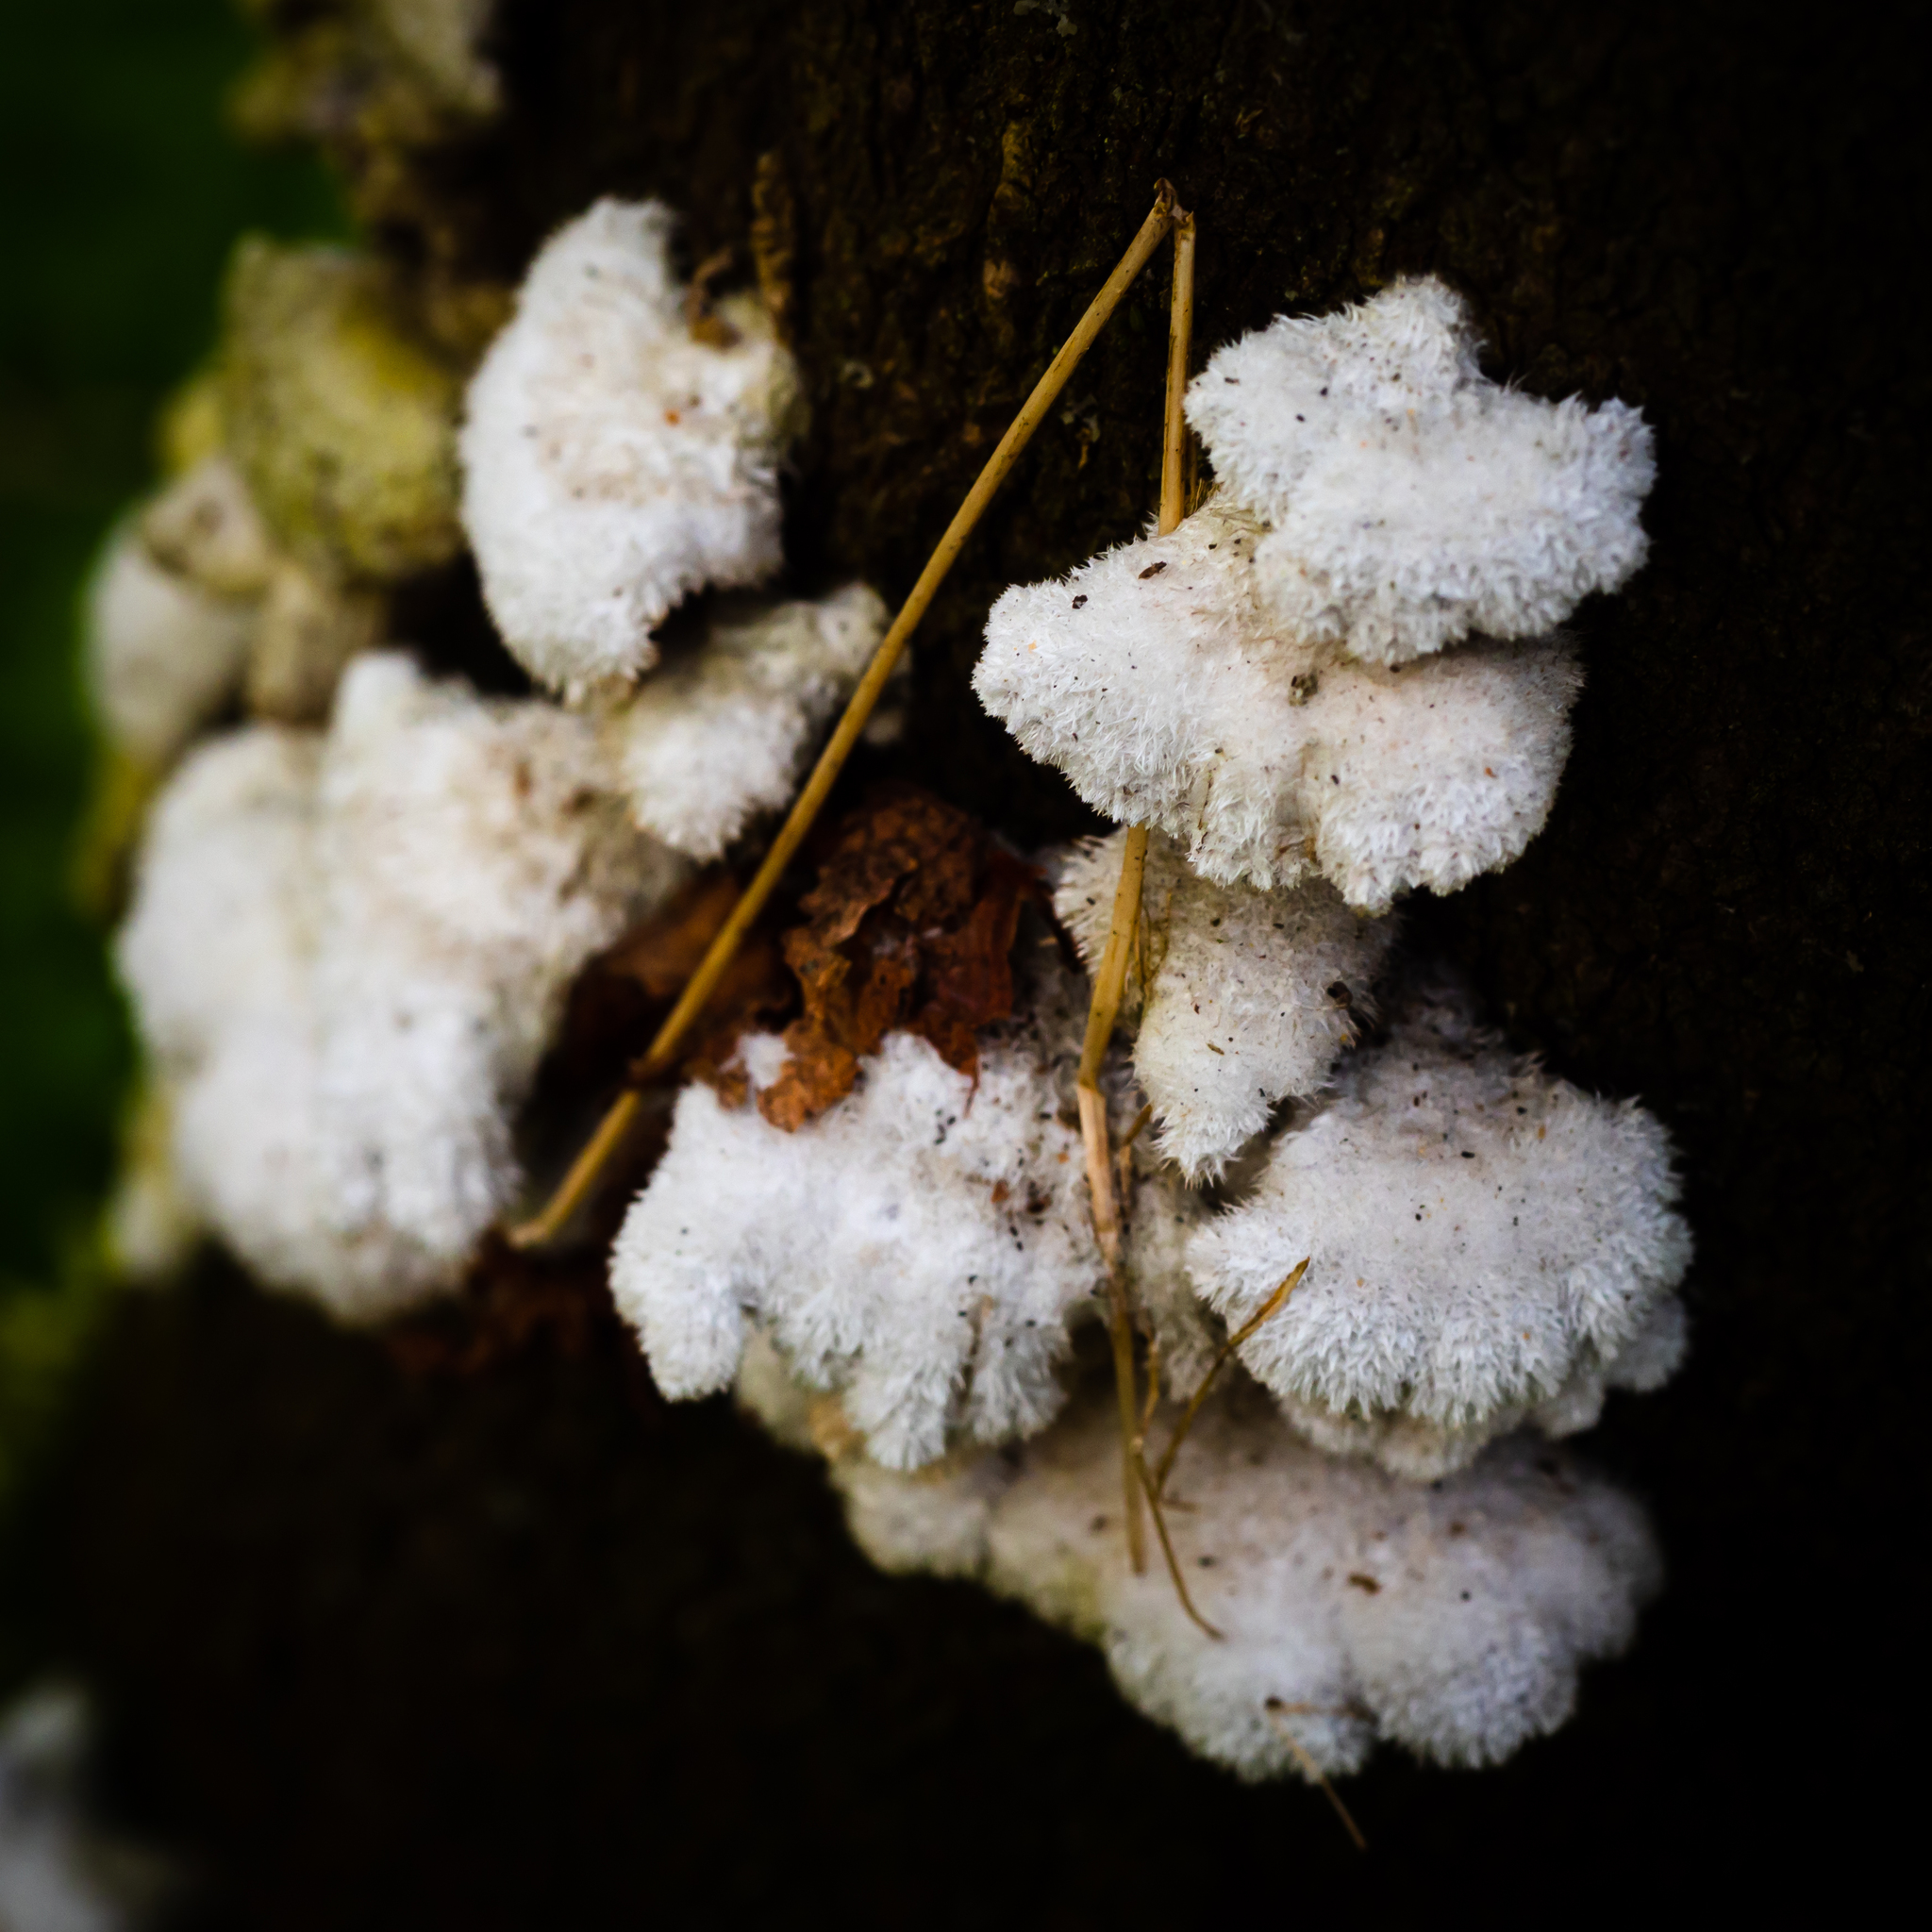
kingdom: Fungi
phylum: Basidiomycota
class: Agaricomycetes
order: Agaricales
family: Schizophyllaceae
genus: Schizophyllum
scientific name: Schizophyllum commune
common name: Common porecrust
